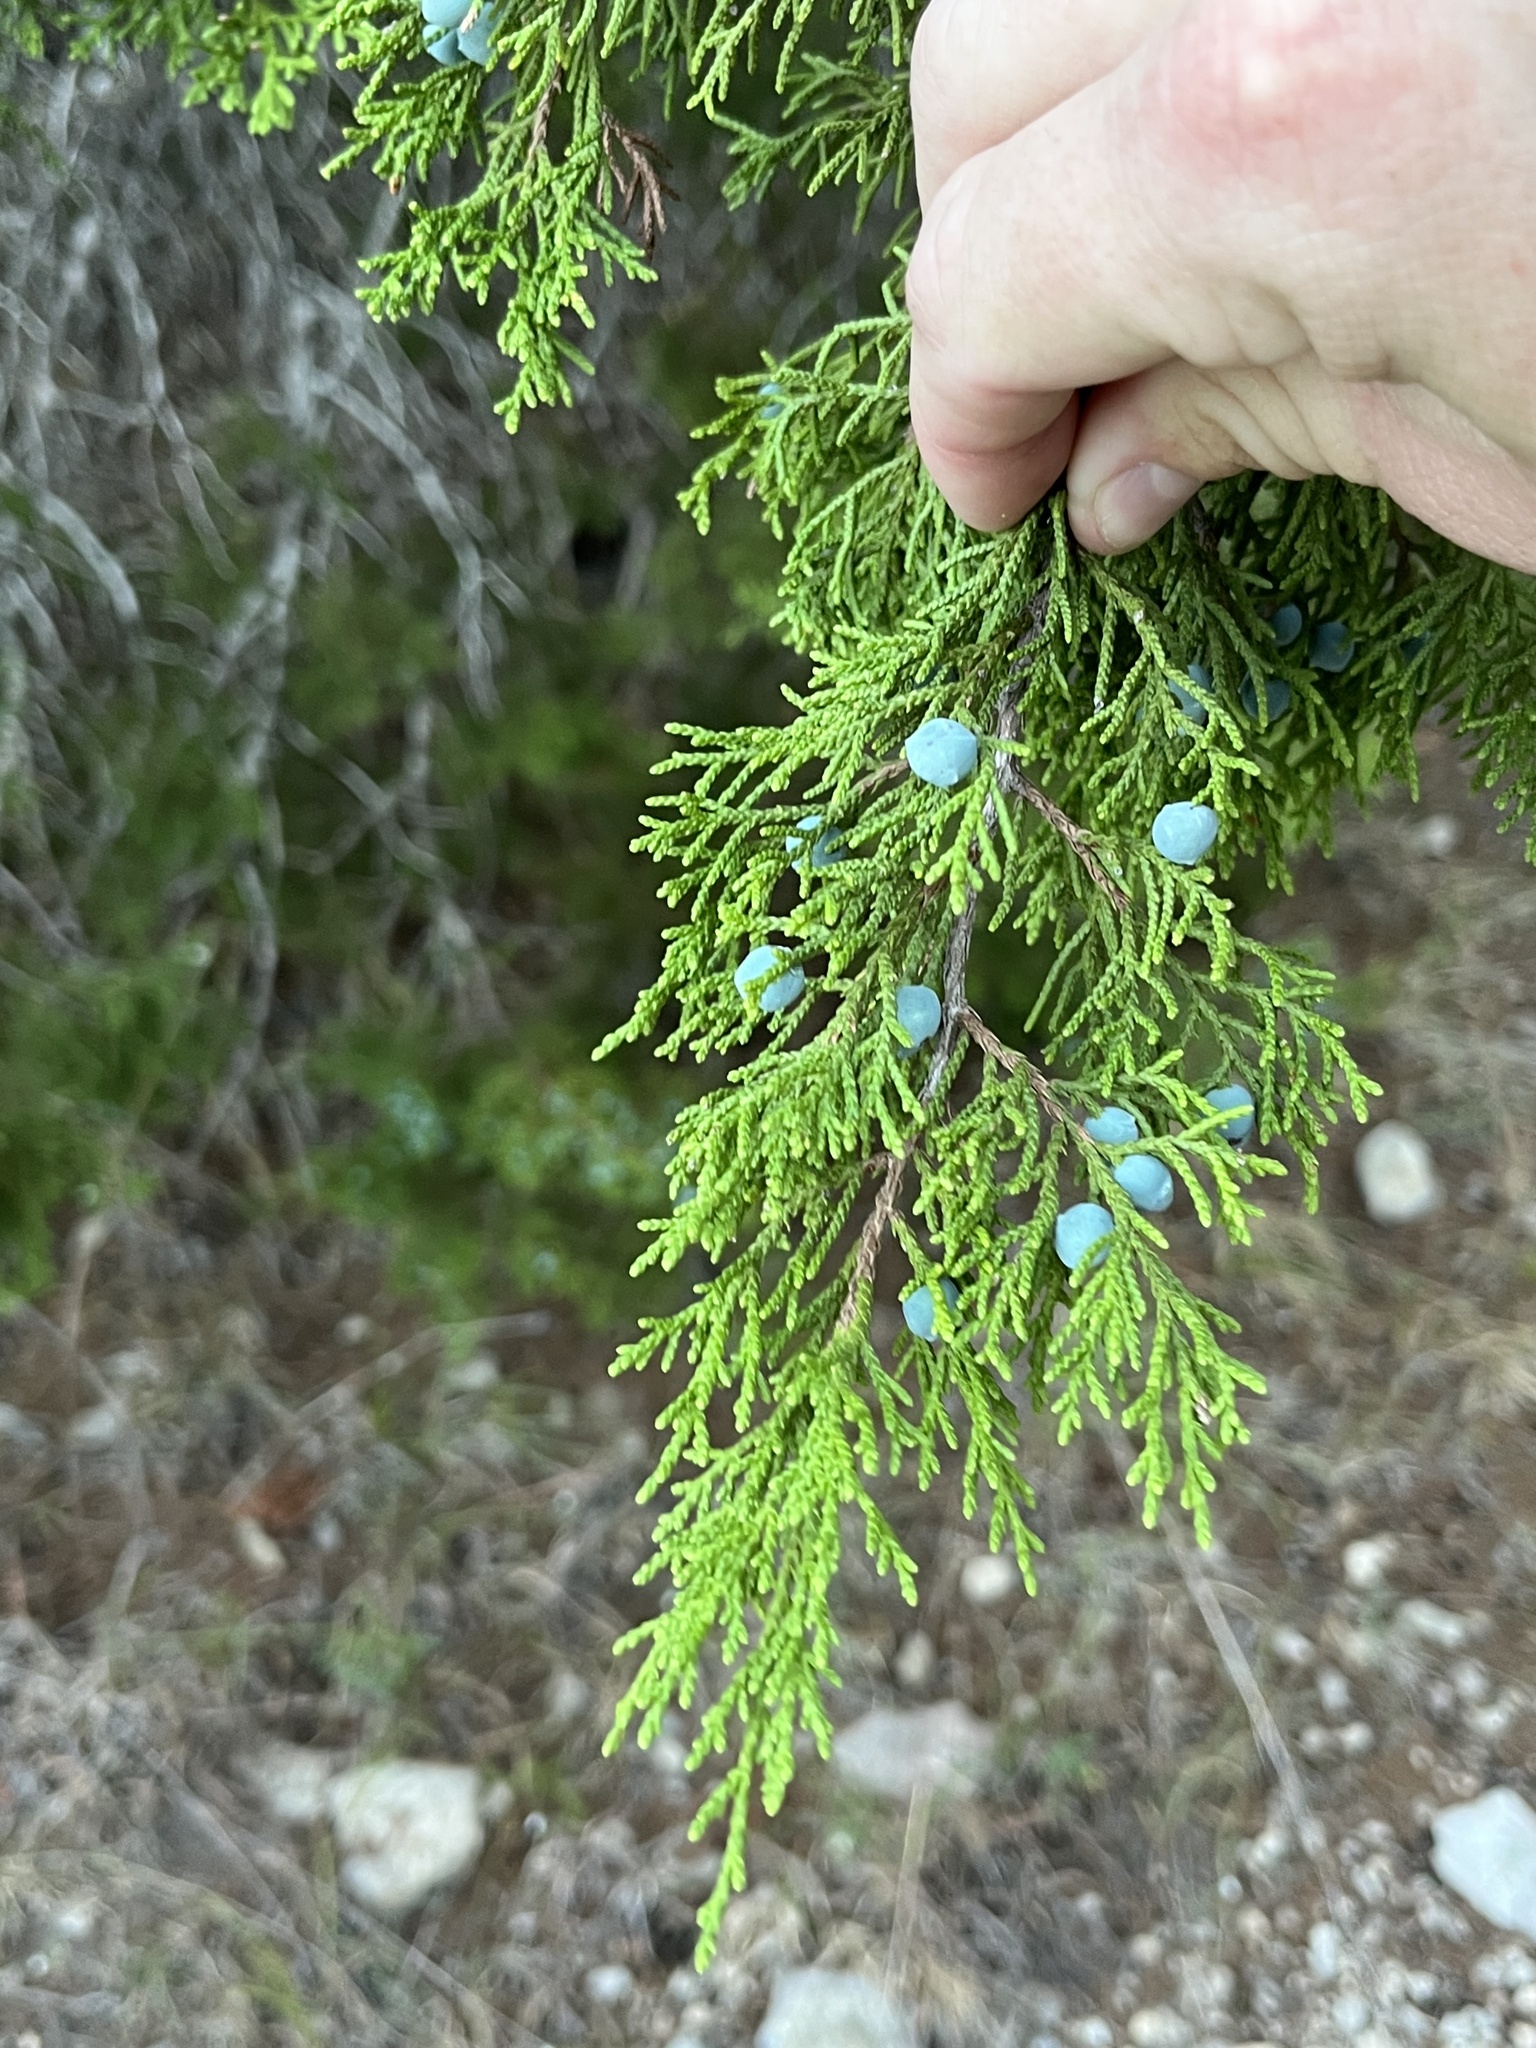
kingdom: Plantae
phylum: Tracheophyta
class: Pinopsida
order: Pinales
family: Cupressaceae
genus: Juniperus
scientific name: Juniperus ashei
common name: Mexican juniper
